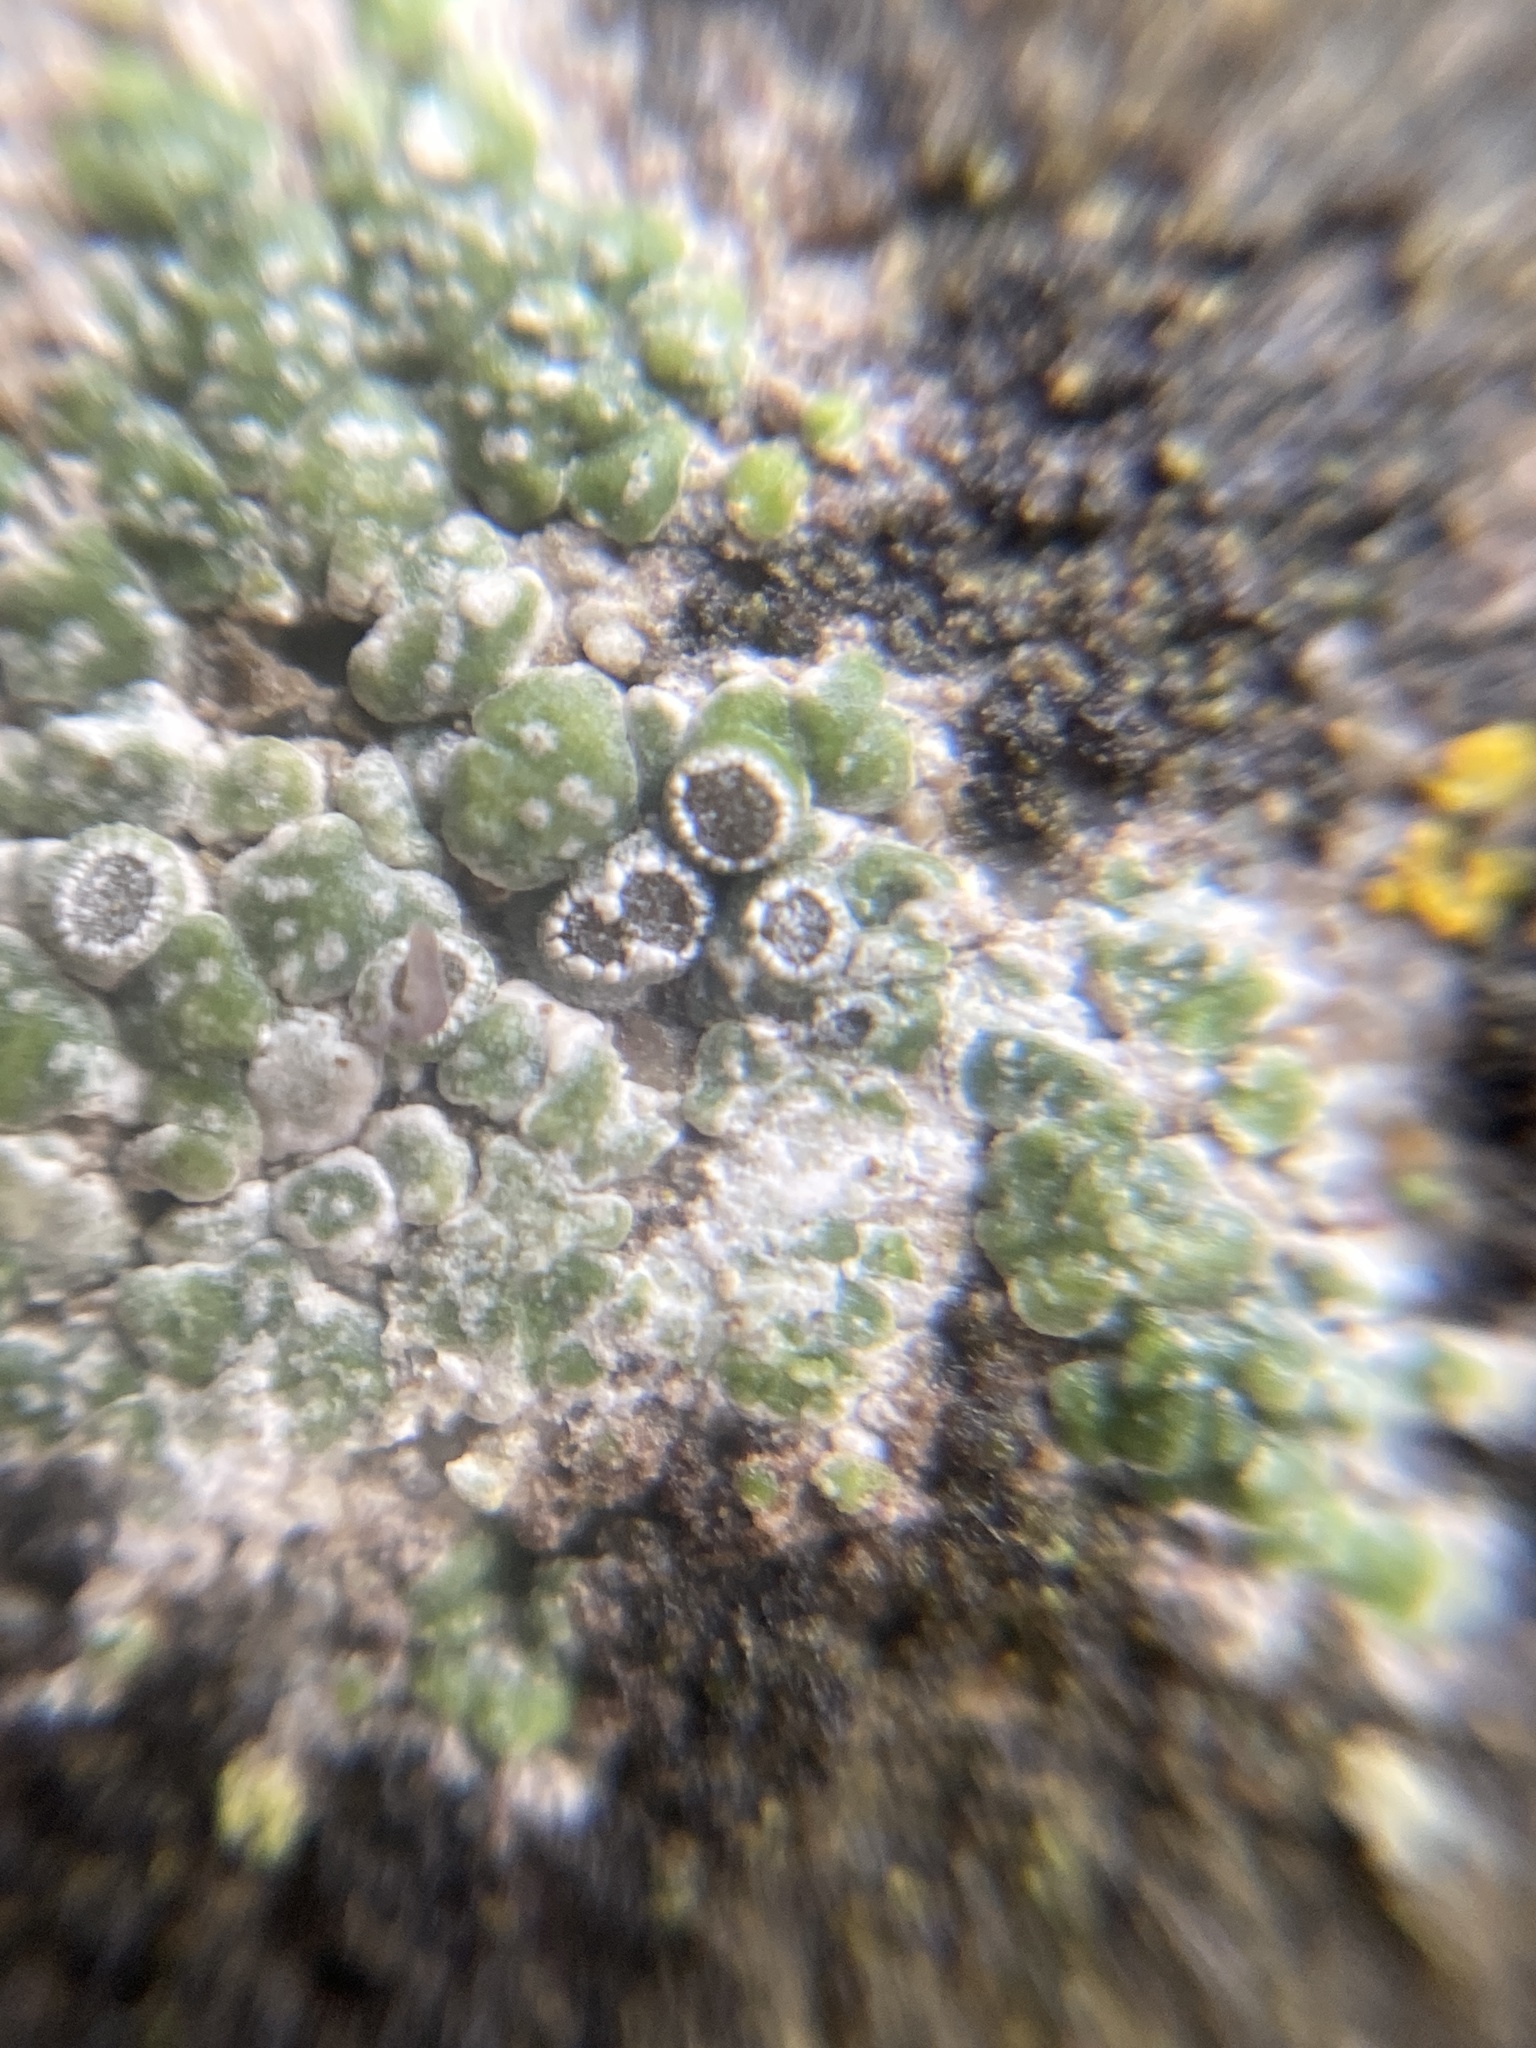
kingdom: Fungi
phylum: Ascomycota
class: Lecanoromycetes
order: Pertusariales
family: Megasporaceae
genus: Circinaria
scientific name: Circinaria contorta
